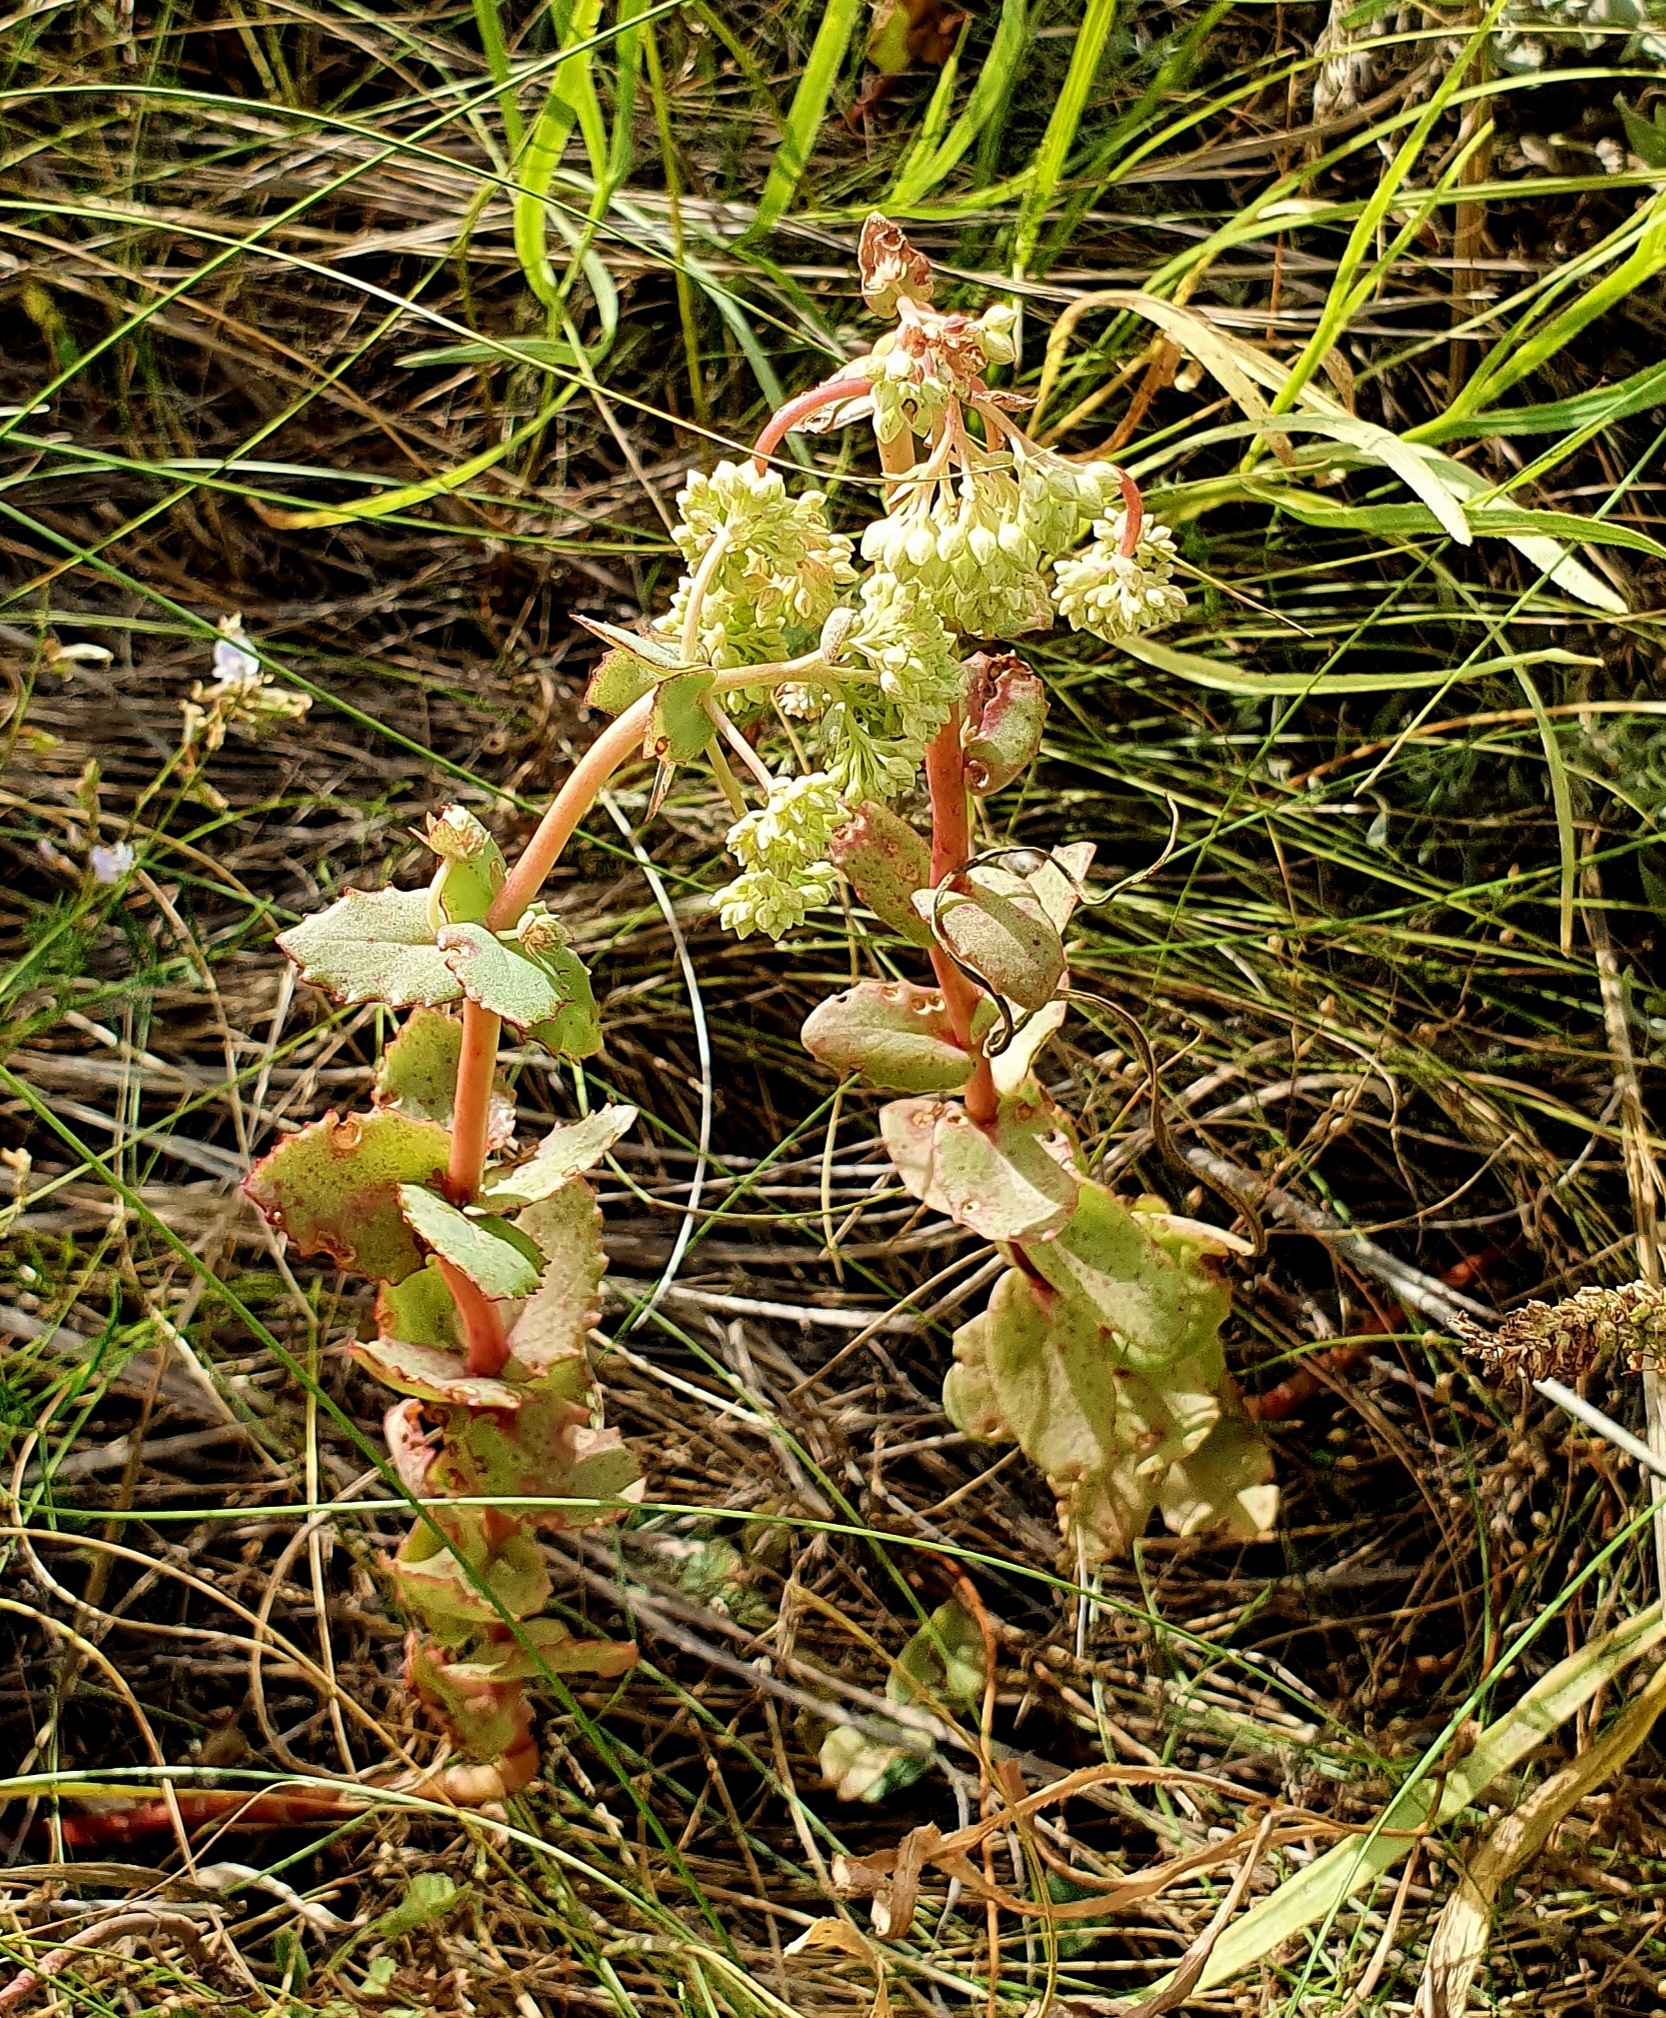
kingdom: Plantae
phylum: Tracheophyta
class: Magnoliopsida
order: Saxifragales
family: Crassulaceae
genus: Hylotelephium
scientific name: Hylotelephium maximum
